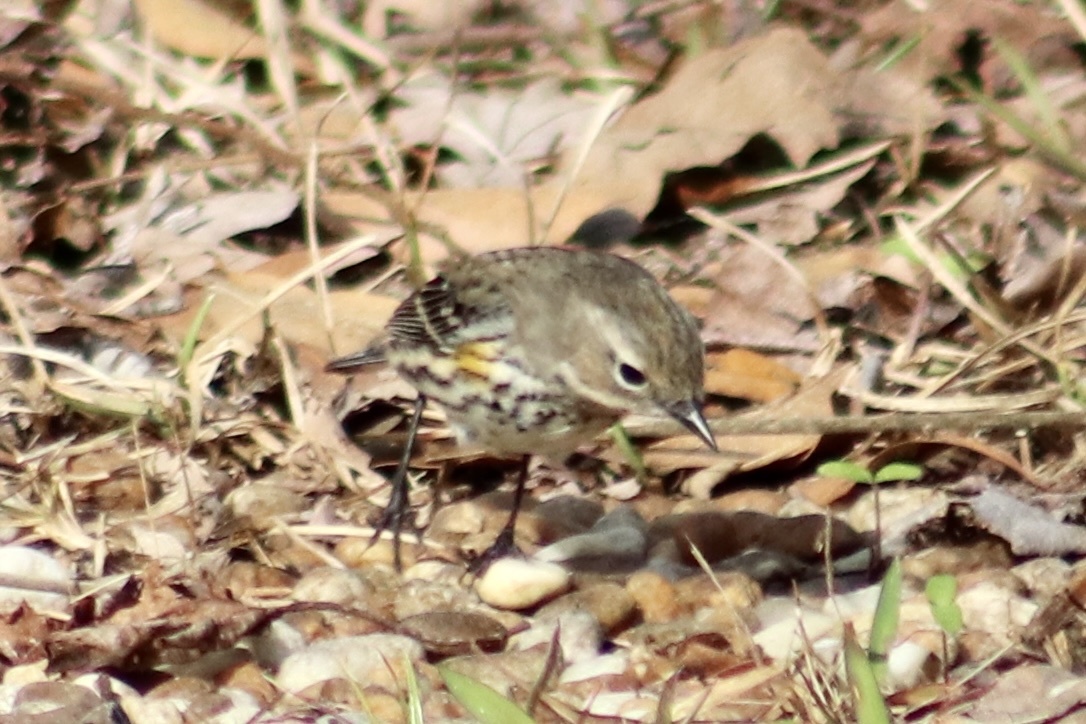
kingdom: Animalia
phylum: Chordata
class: Aves
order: Passeriformes
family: Parulidae
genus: Setophaga
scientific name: Setophaga coronata
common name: Myrtle warbler
